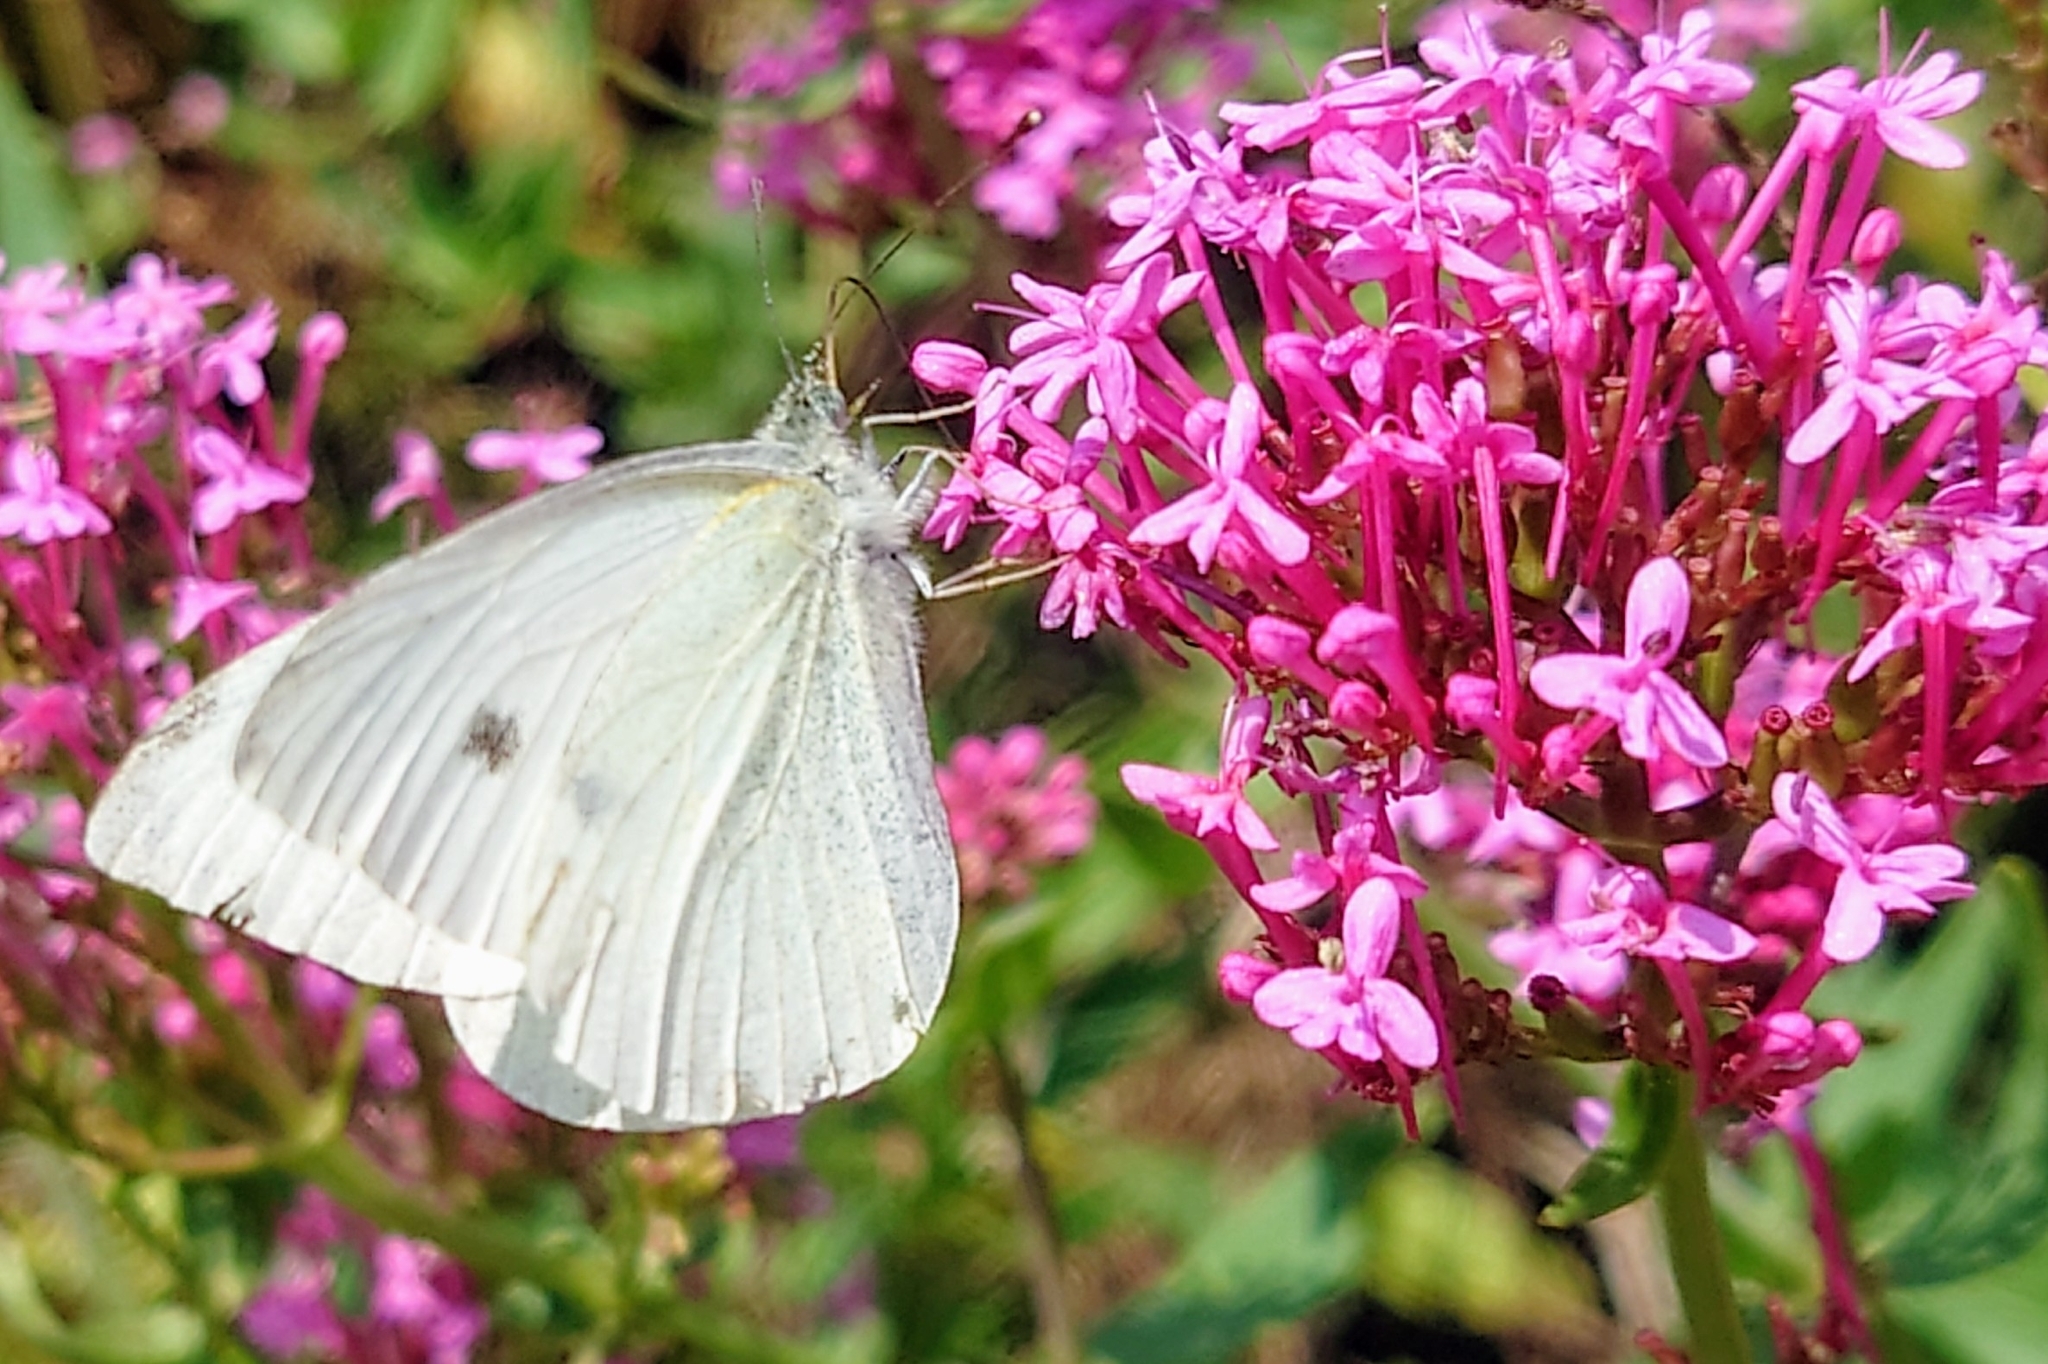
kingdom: Animalia
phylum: Arthropoda
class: Insecta
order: Lepidoptera
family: Pieridae
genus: Pieris
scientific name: Pieris rapae
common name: Small white
